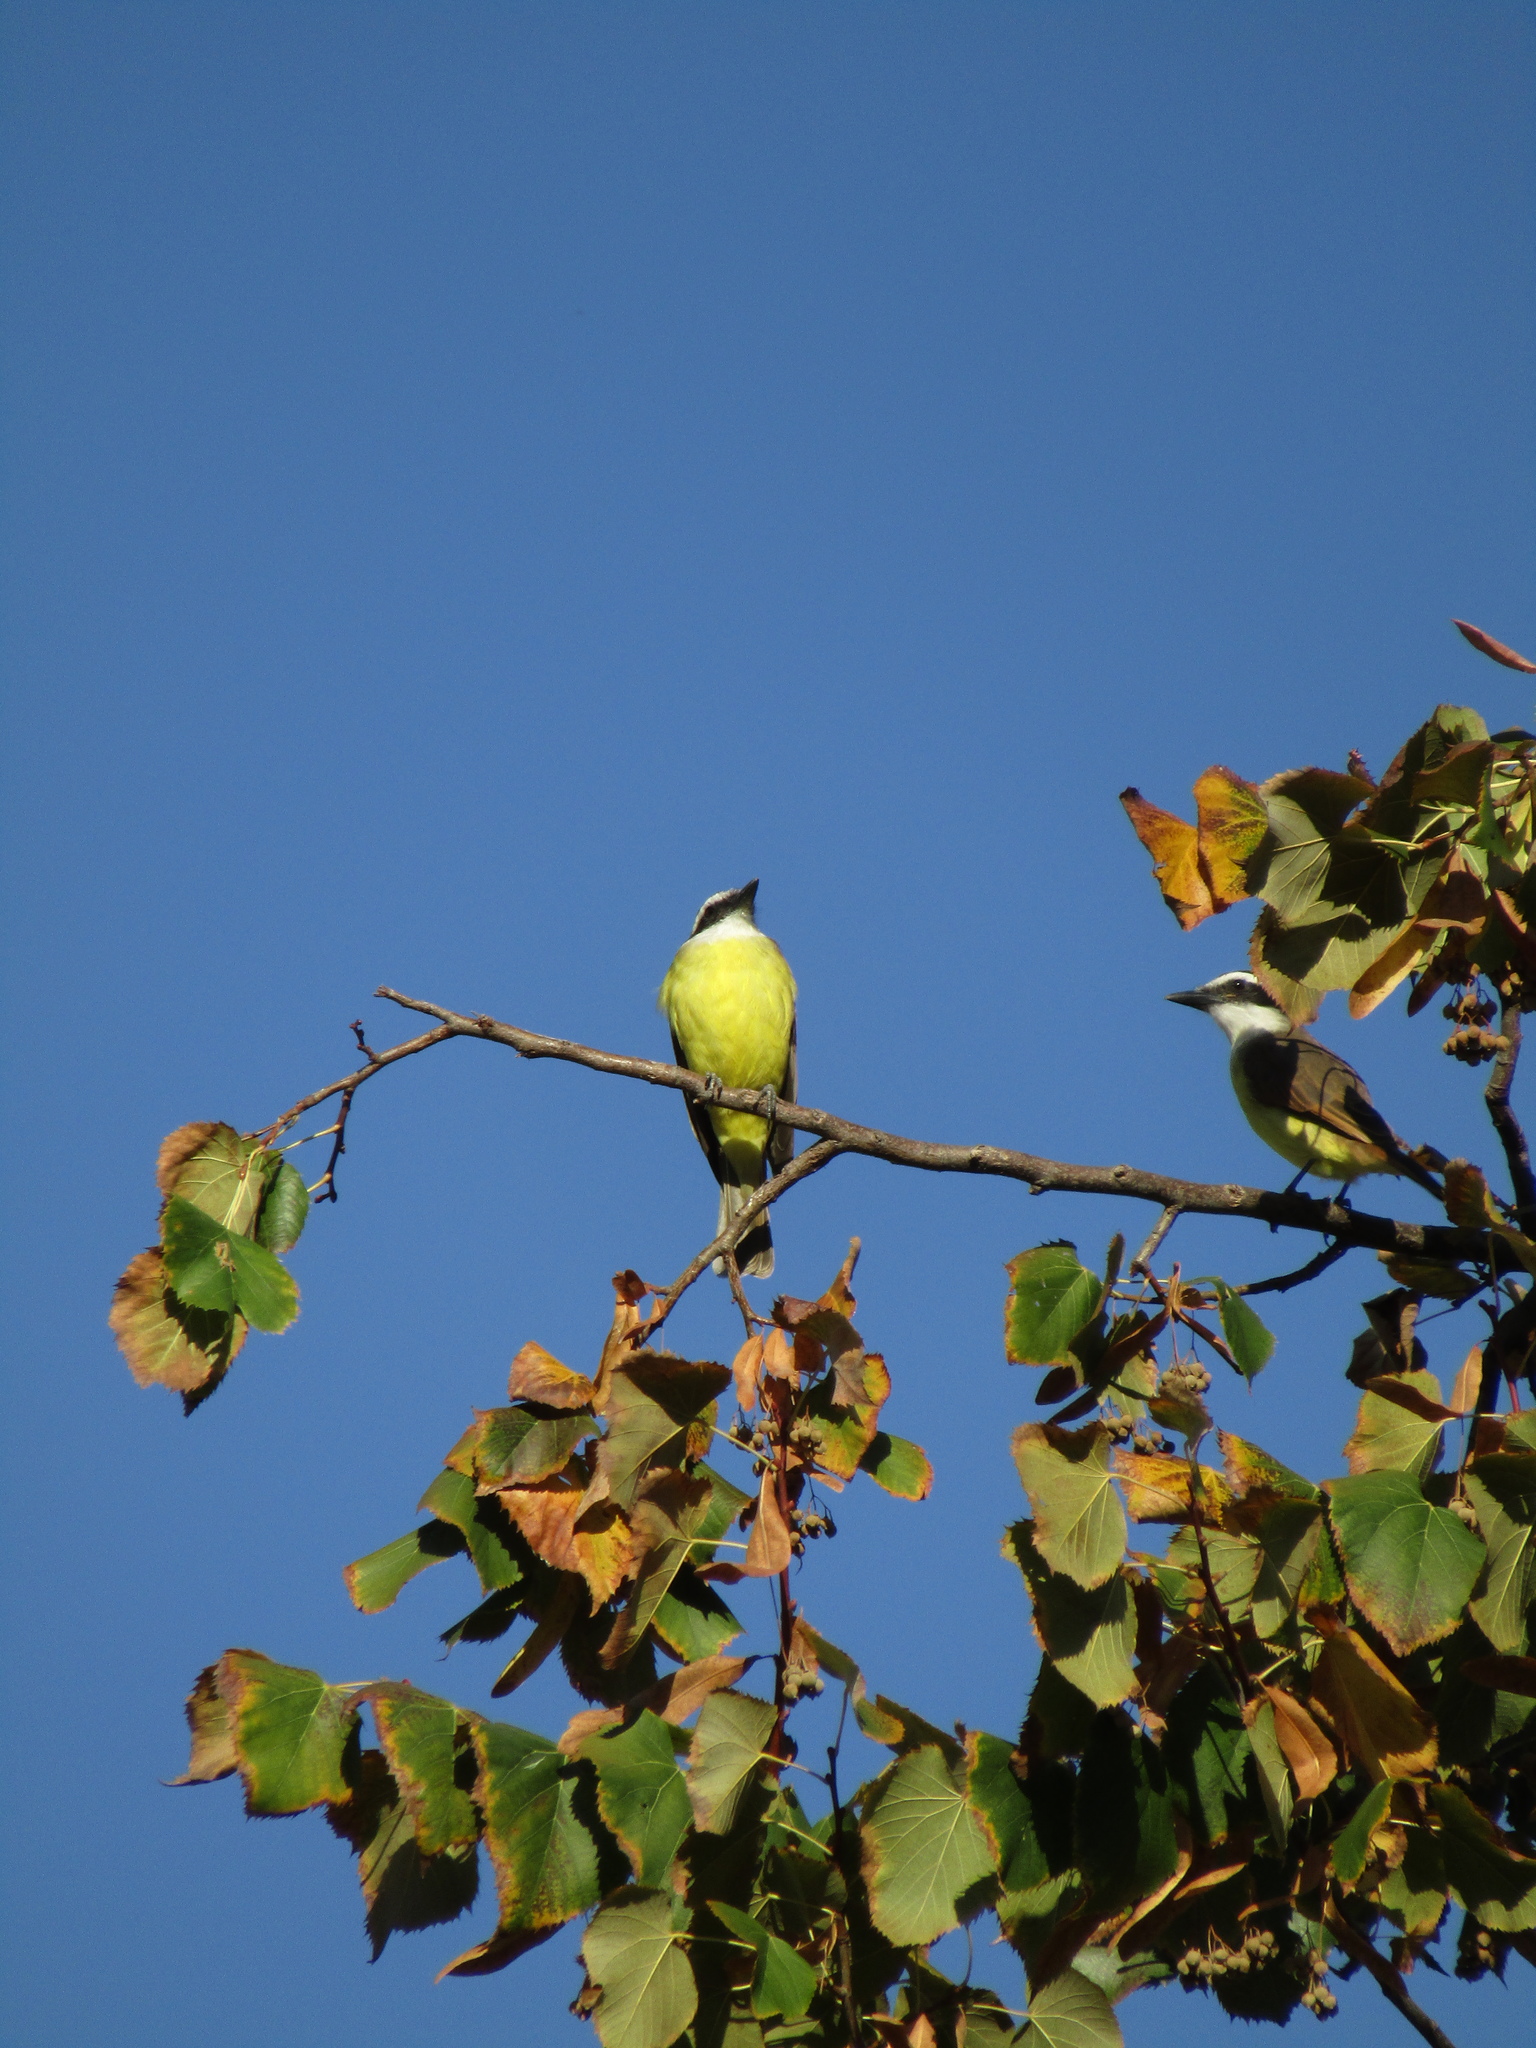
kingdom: Animalia
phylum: Chordata
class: Aves
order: Passeriformes
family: Tyrannidae
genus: Pitangus
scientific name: Pitangus sulphuratus
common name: Great kiskadee
